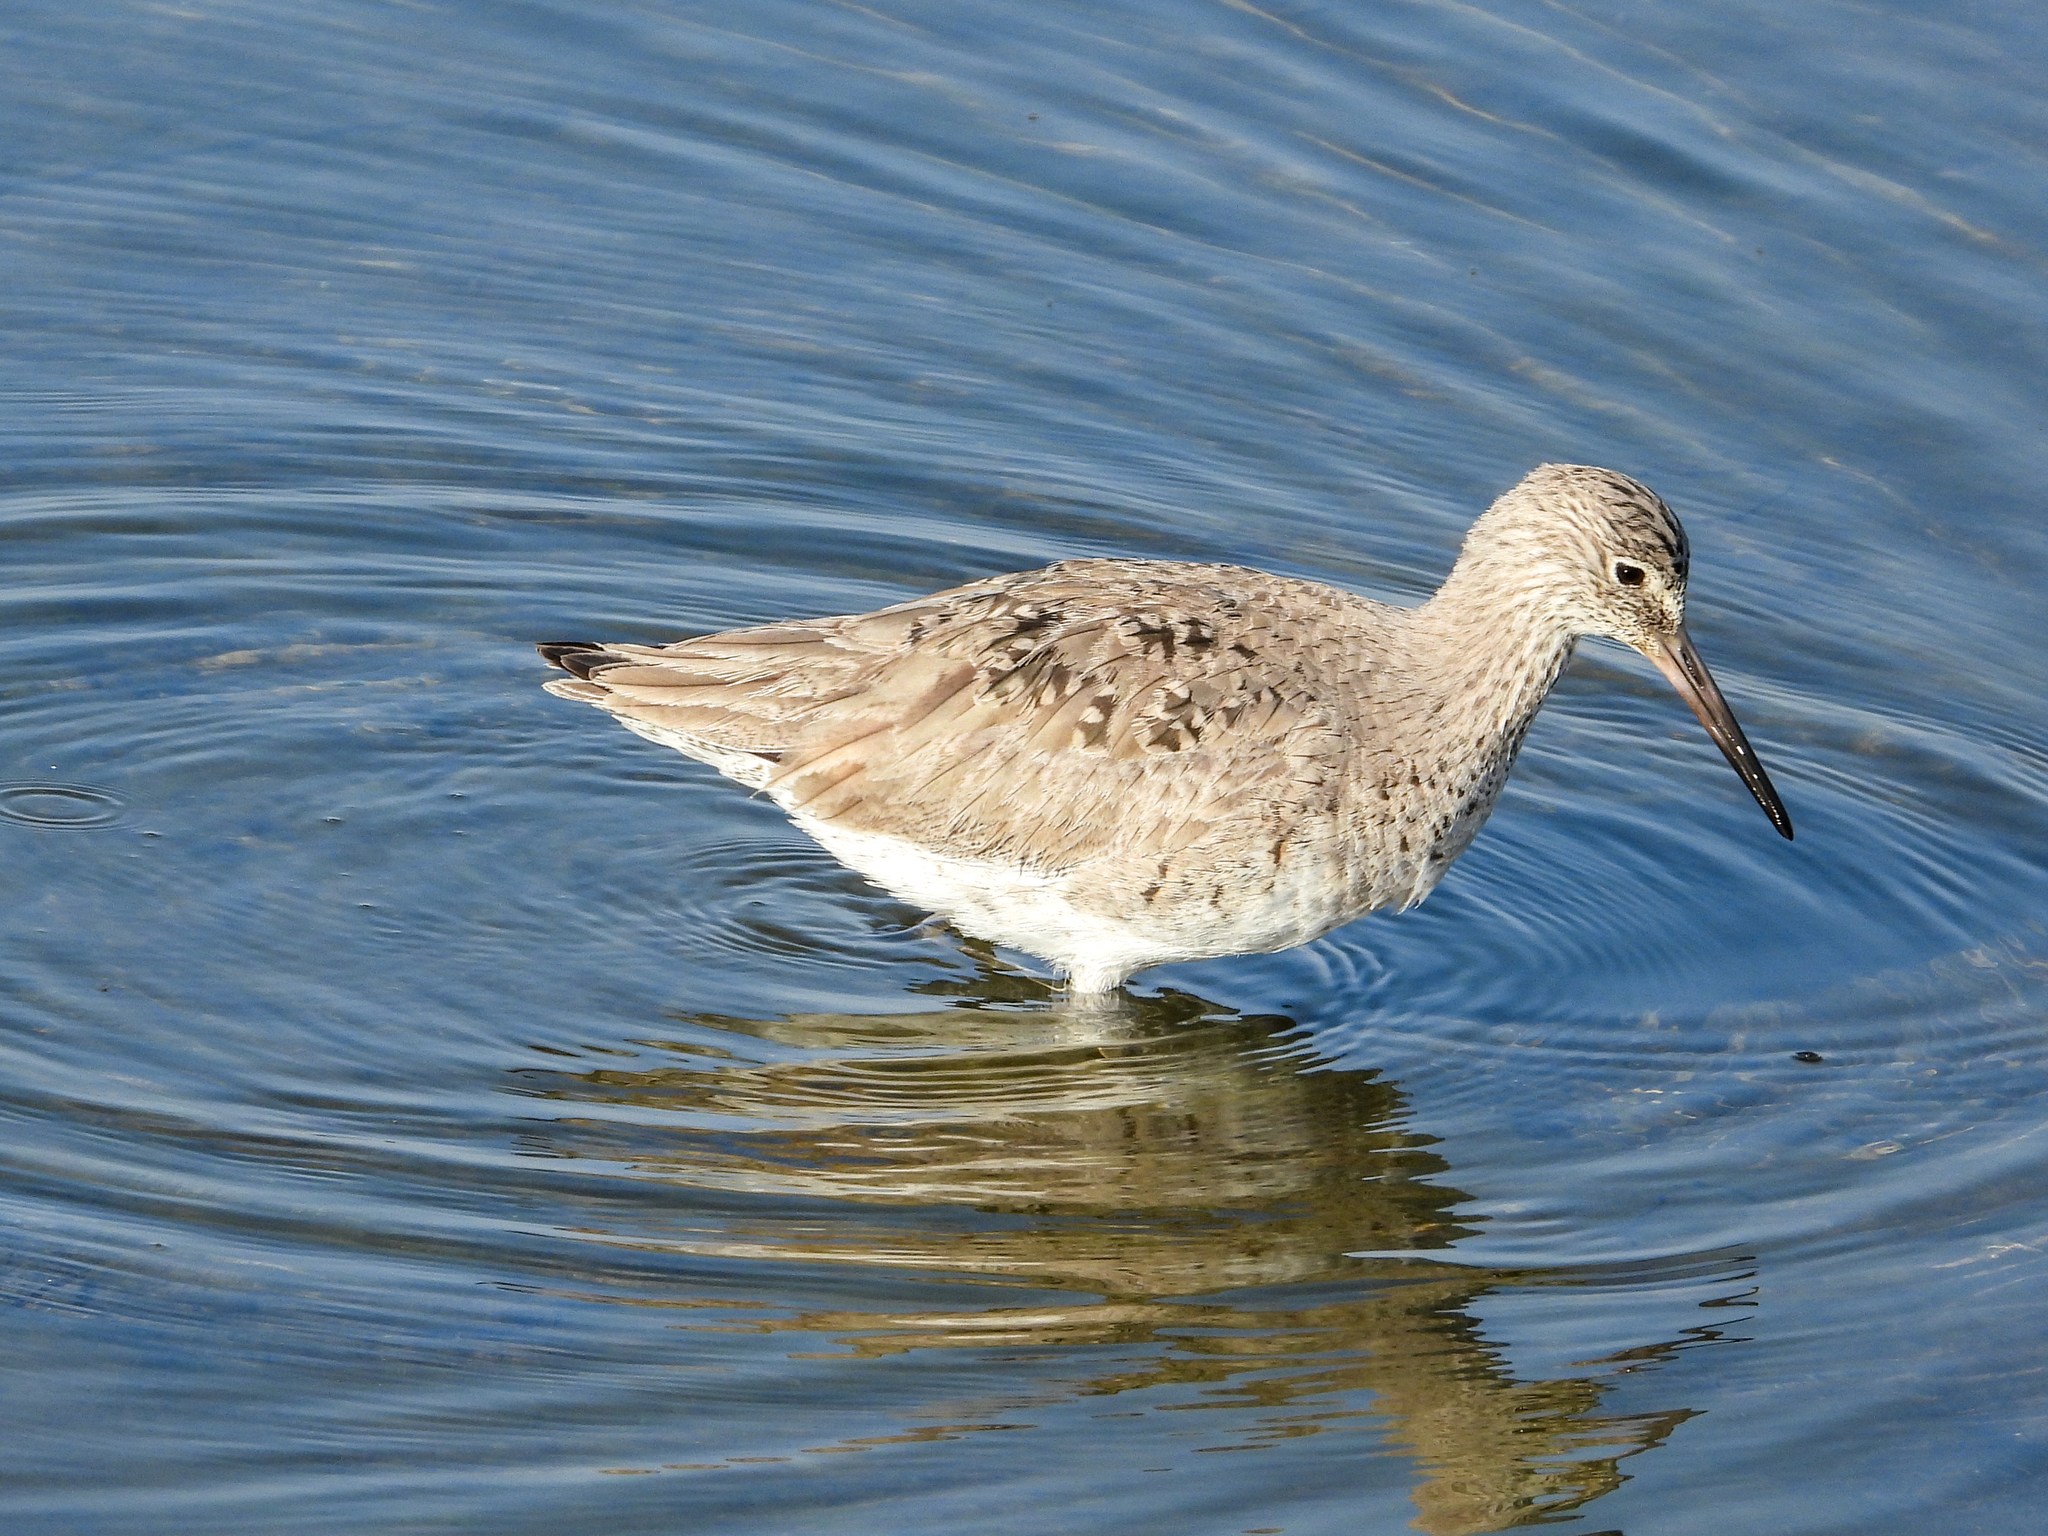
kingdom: Animalia
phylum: Chordata
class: Aves
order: Charadriiformes
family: Scolopacidae
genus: Tringa
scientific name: Tringa semipalmata
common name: Willet
